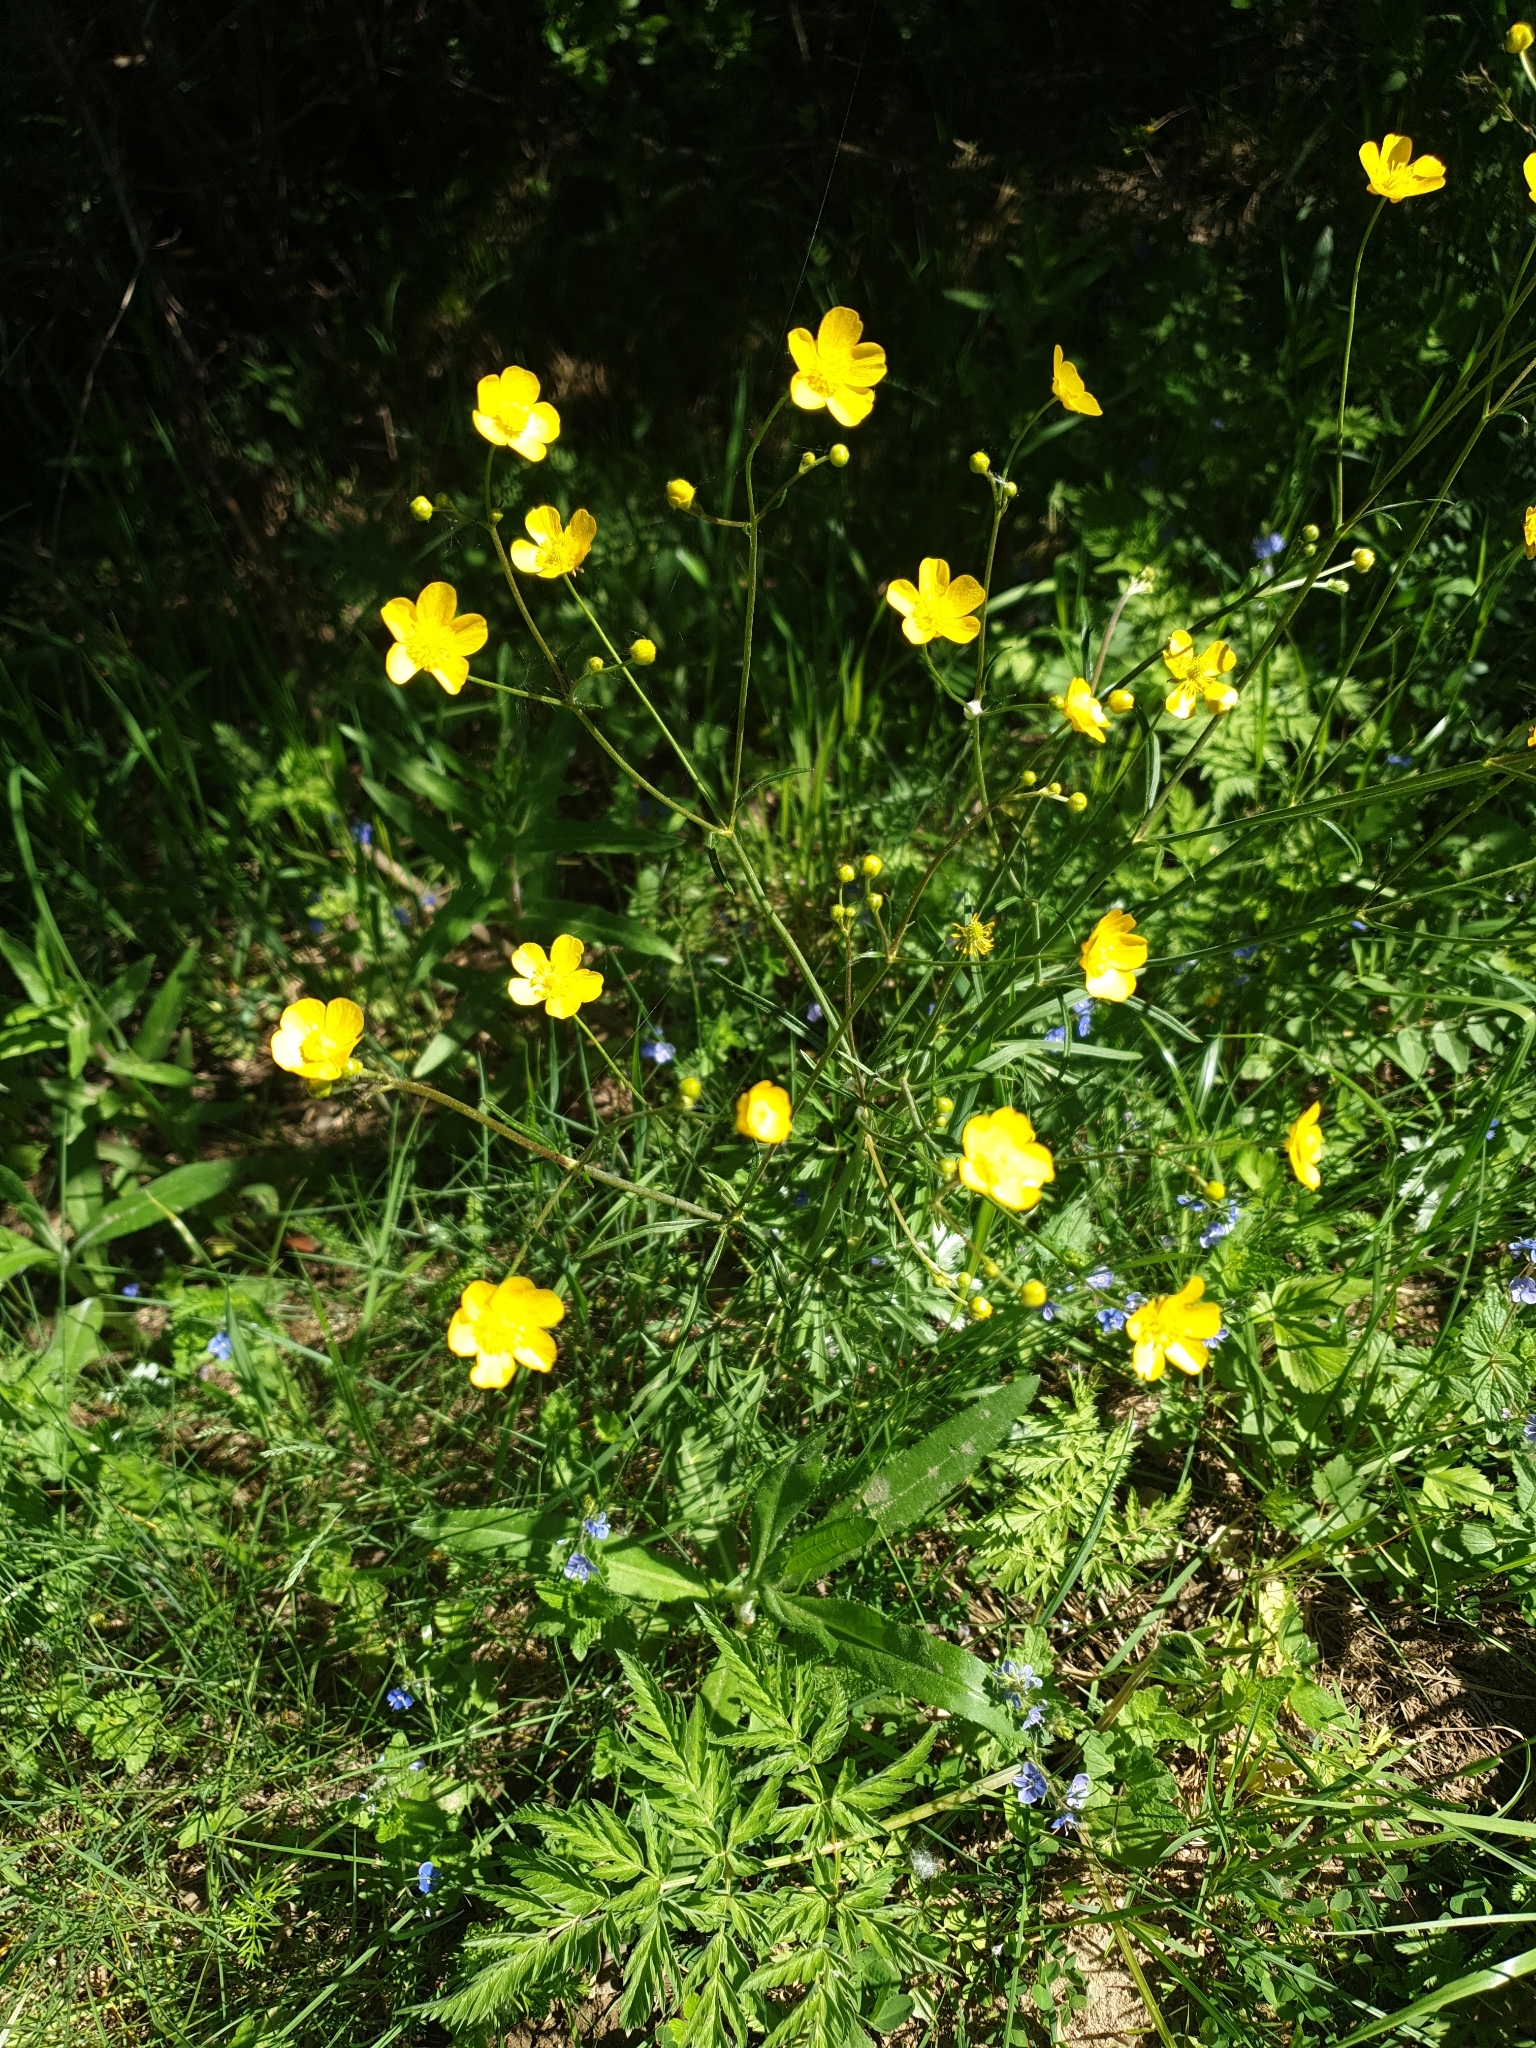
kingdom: Plantae
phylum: Tracheophyta
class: Magnoliopsida
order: Ranunculales
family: Ranunculaceae
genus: Ranunculus
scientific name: Ranunculus acris
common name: Meadow buttercup
